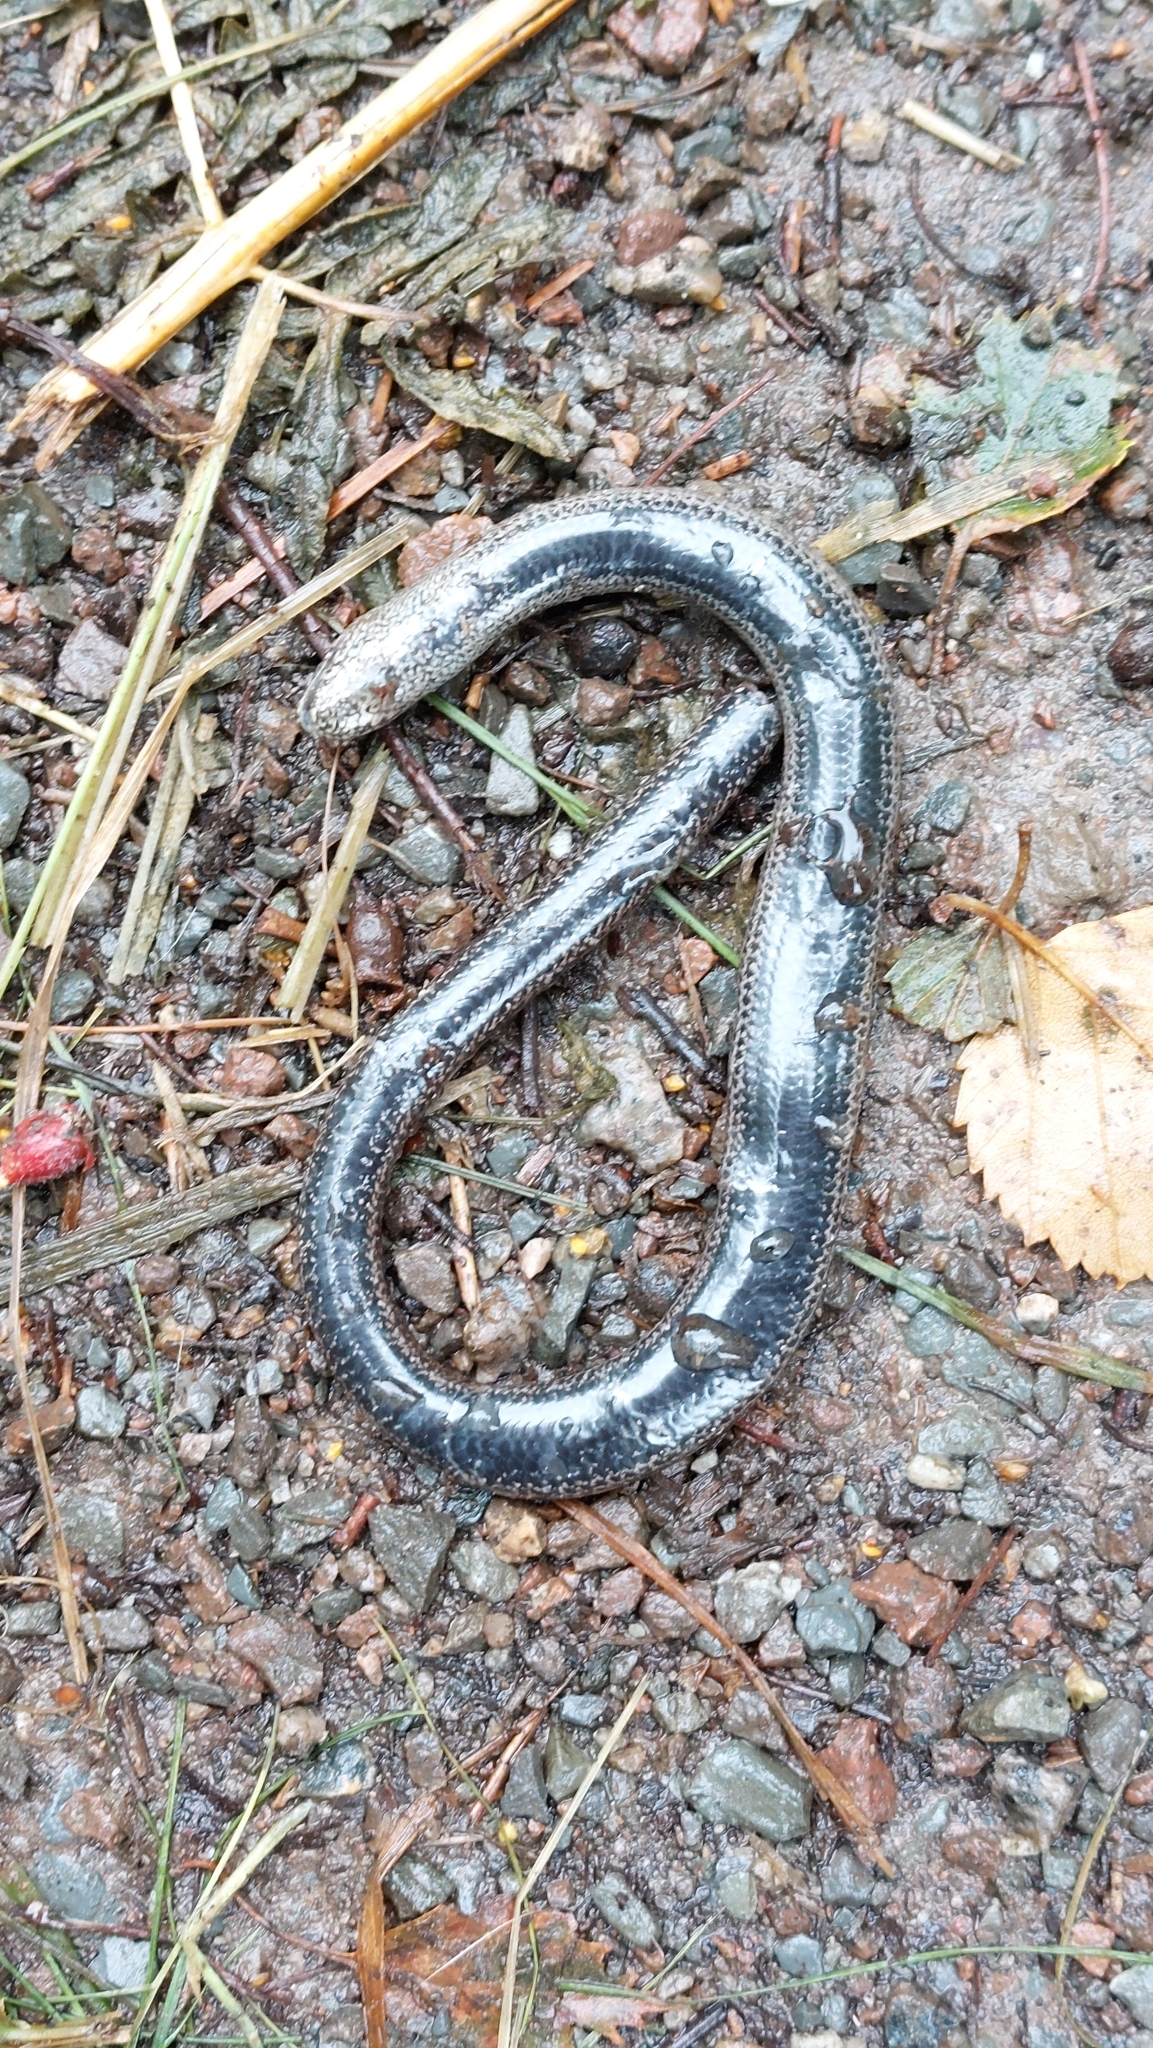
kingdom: Animalia
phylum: Chordata
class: Squamata
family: Anguidae
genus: Anguis
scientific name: Anguis fragilis
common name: Slow worm
